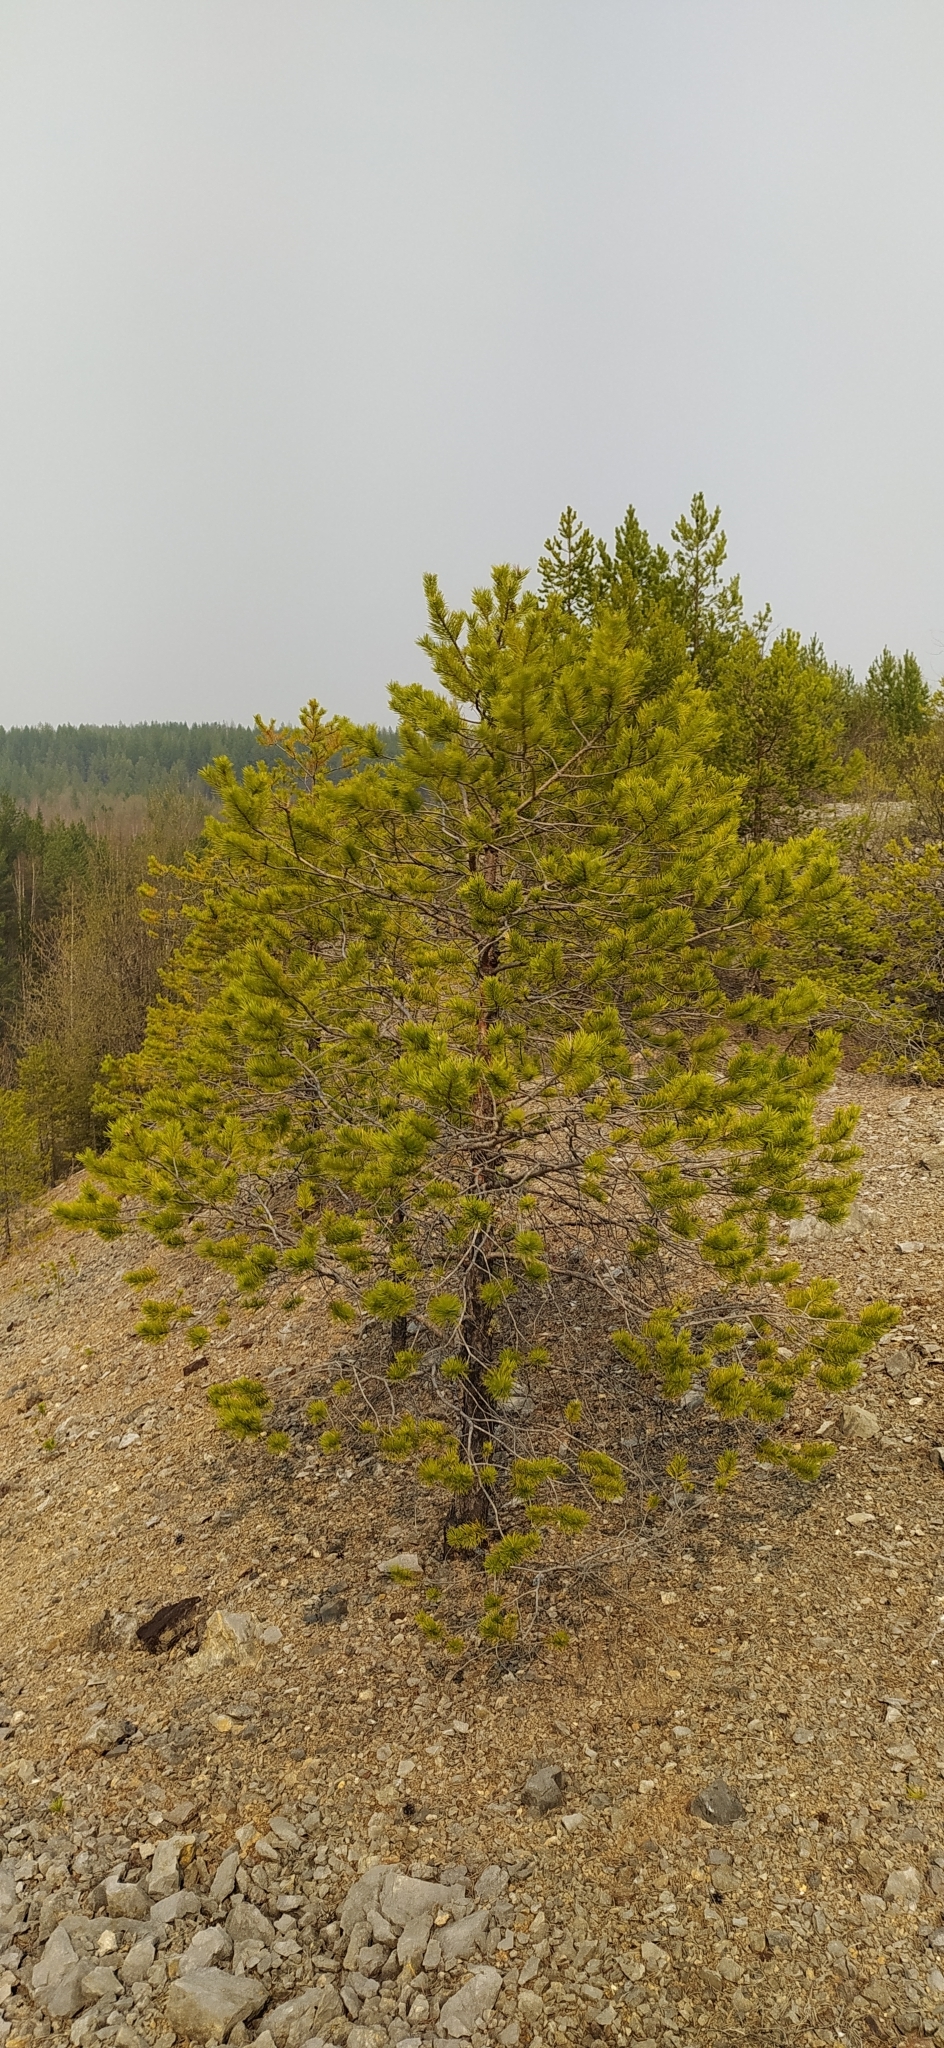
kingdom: Plantae
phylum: Tracheophyta
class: Pinopsida
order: Pinales
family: Pinaceae
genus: Pinus
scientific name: Pinus sylvestris
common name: Scots pine
